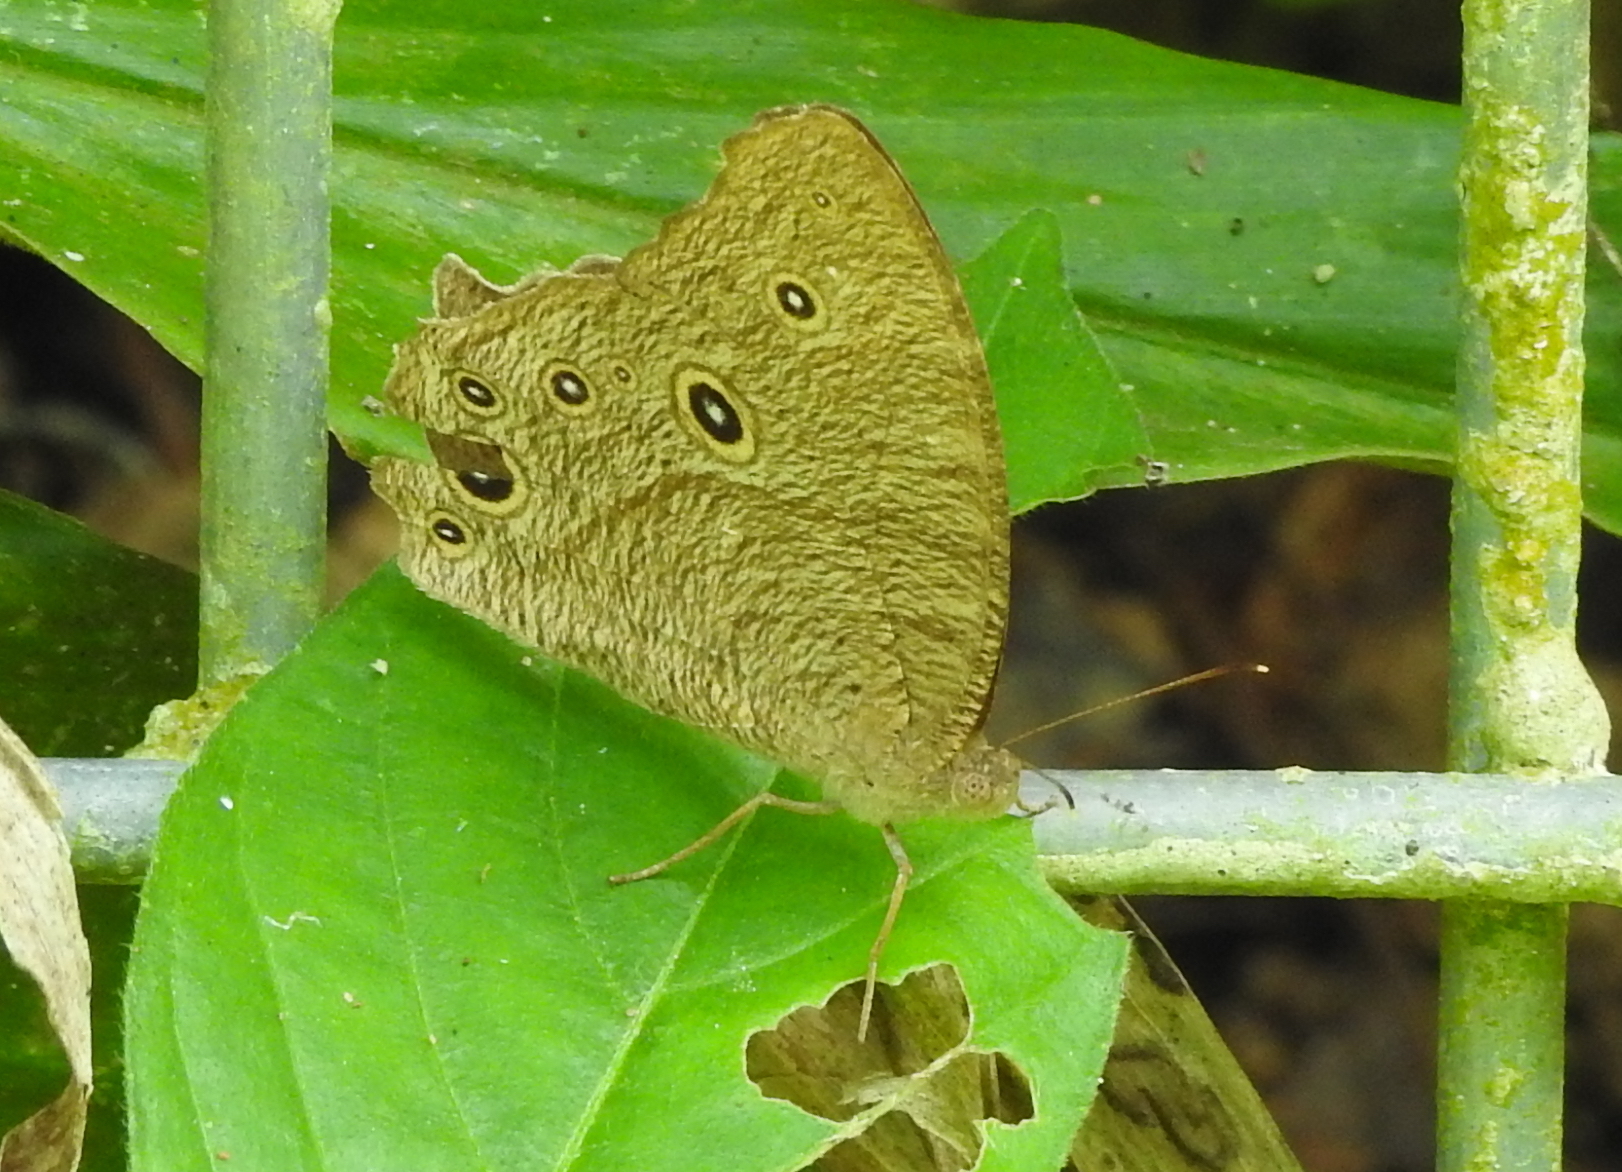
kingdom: Animalia
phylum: Arthropoda
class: Insecta
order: Lepidoptera
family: Nymphalidae
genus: Melanitis
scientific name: Melanitis leda
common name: Twilight brown
